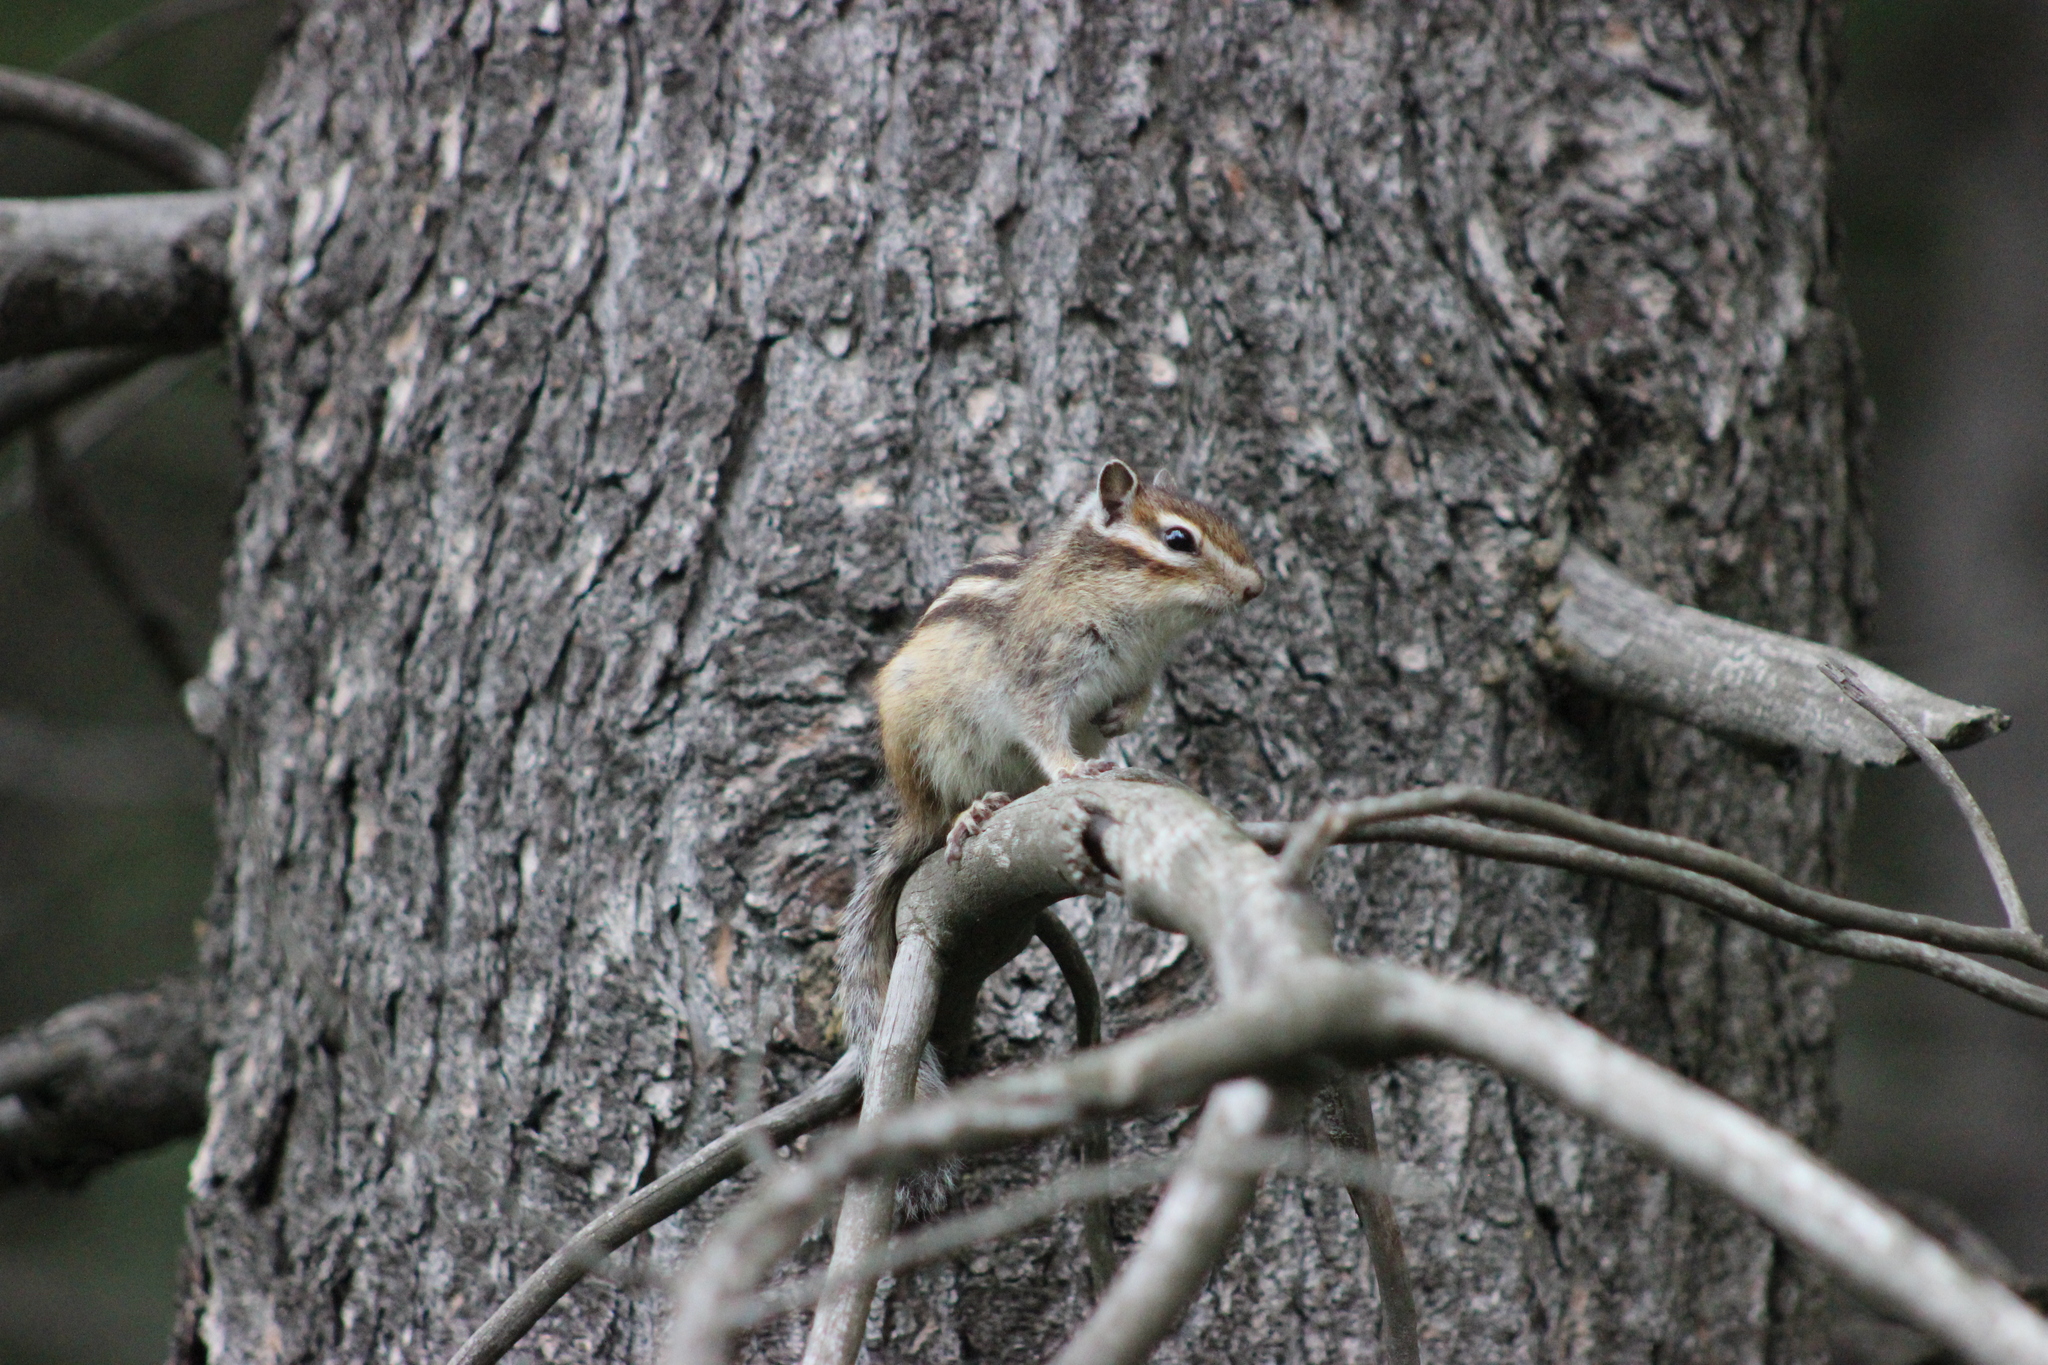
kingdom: Animalia
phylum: Chordata
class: Mammalia
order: Rodentia
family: Sciuridae
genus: Tamias
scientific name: Tamias sibiricus
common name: Siberian chipmunk
